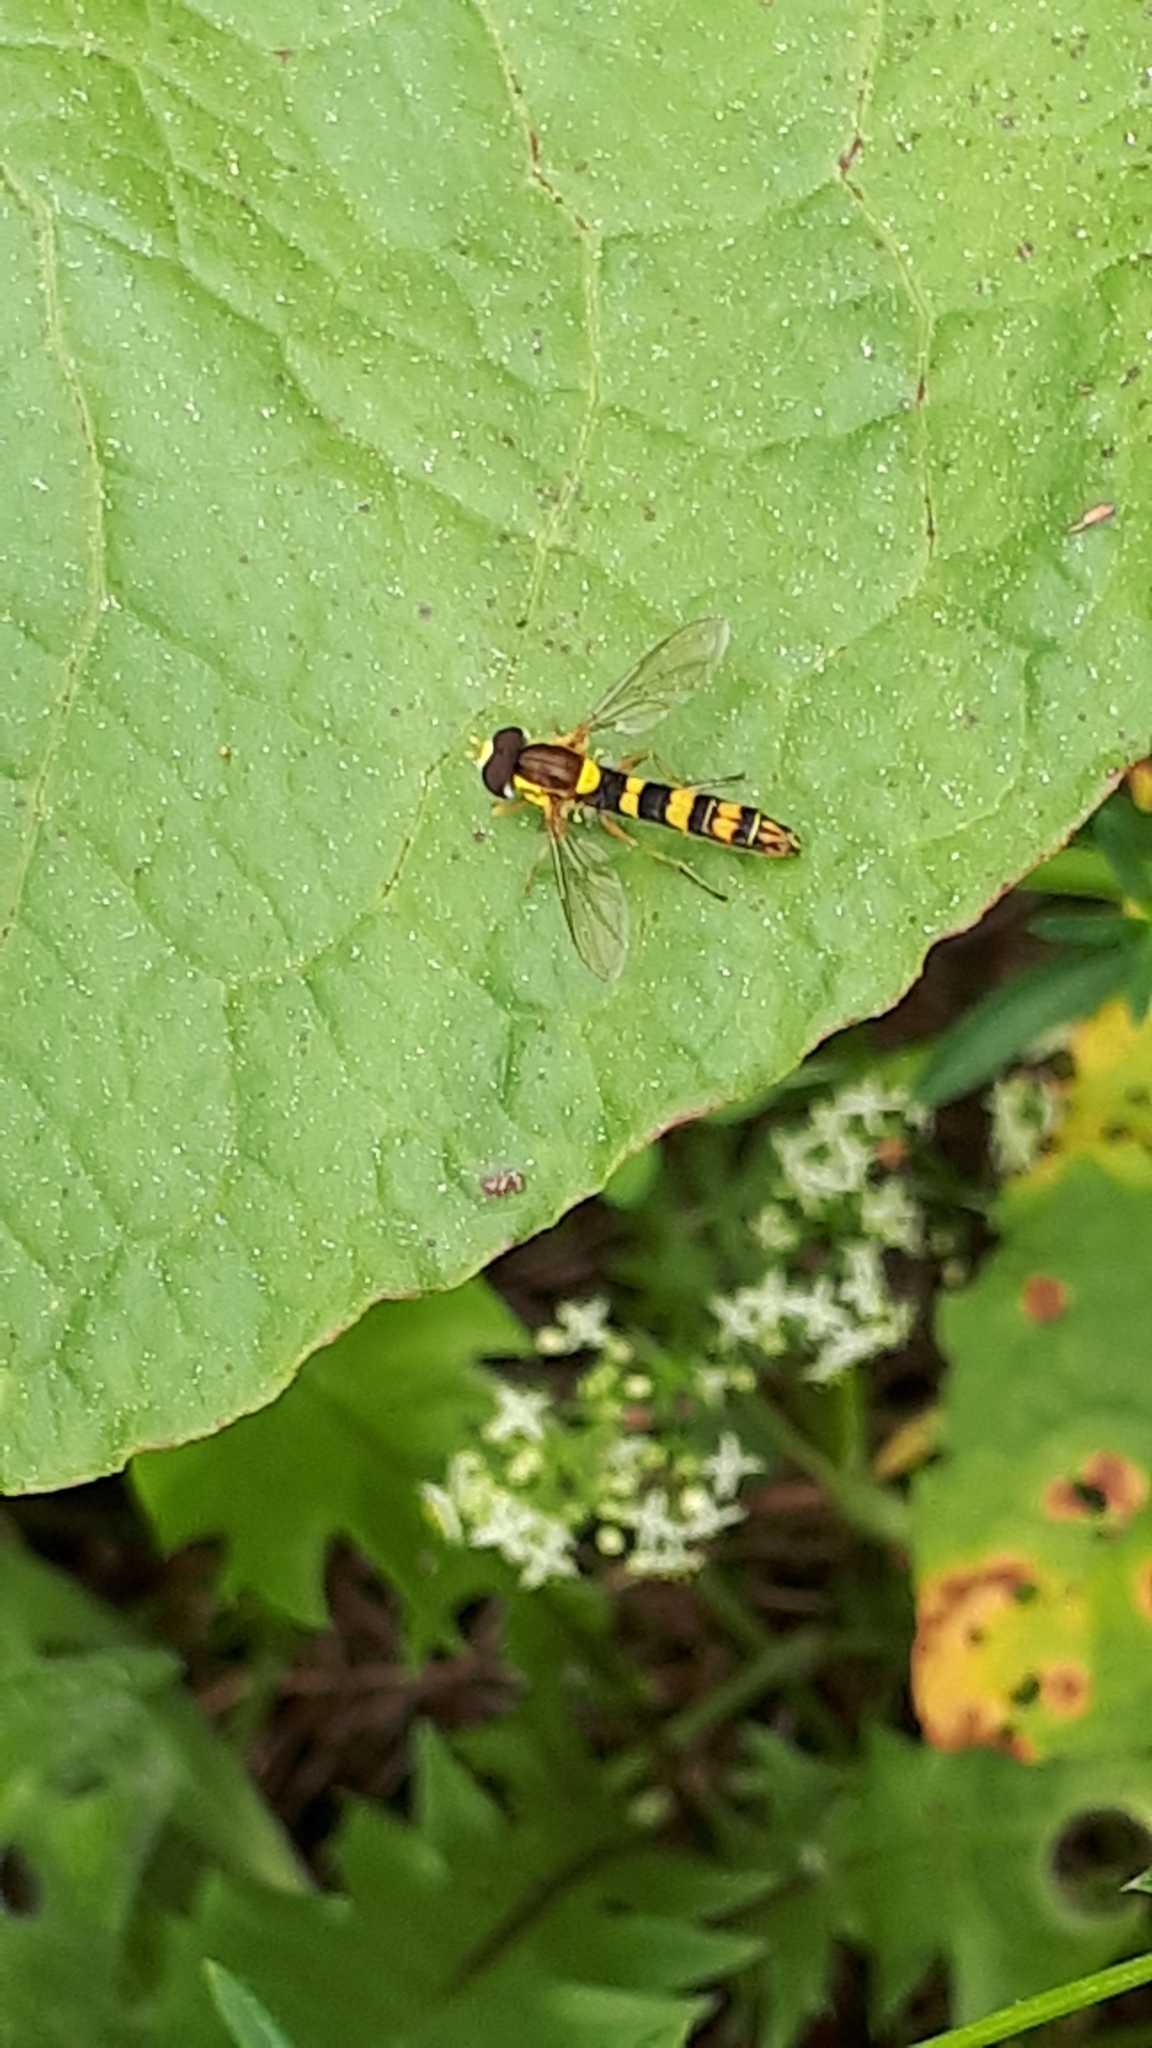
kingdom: Animalia
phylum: Arthropoda
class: Insecta
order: Diptera
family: Syrphidae
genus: Sphaerophoria
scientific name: Sphaerophoria scripta
